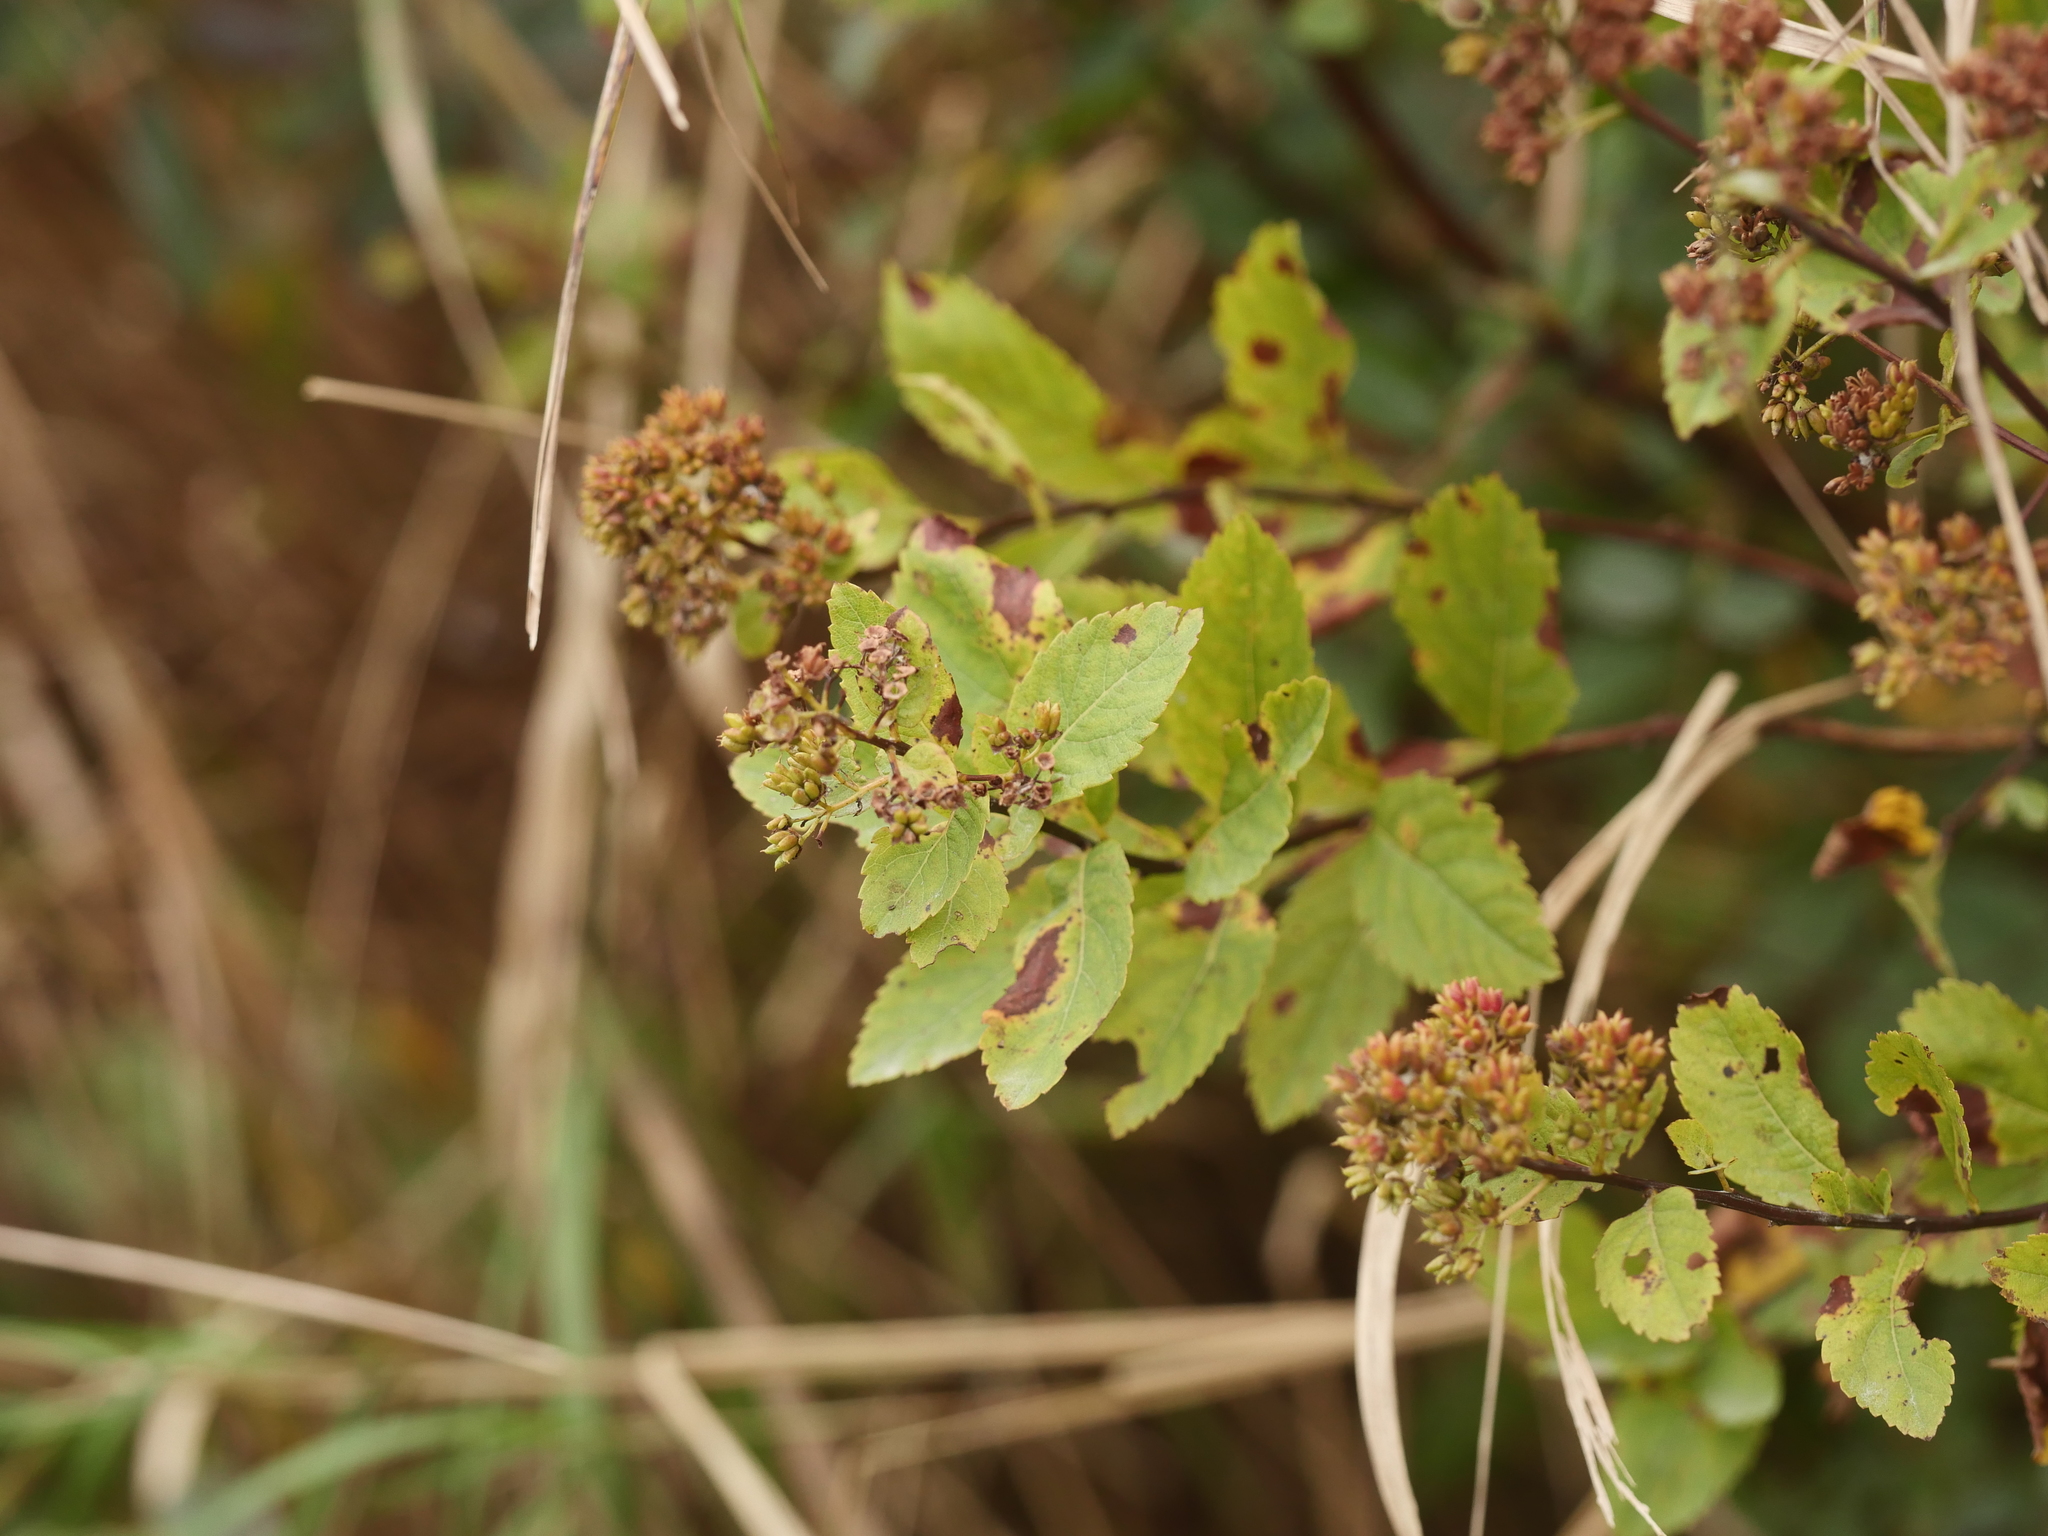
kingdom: Plantae
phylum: Tracheophyta
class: Magnoliopsida
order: Rosales
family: Rosaceae
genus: Spiraea
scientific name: Spiraea alba
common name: Pale bridewort
